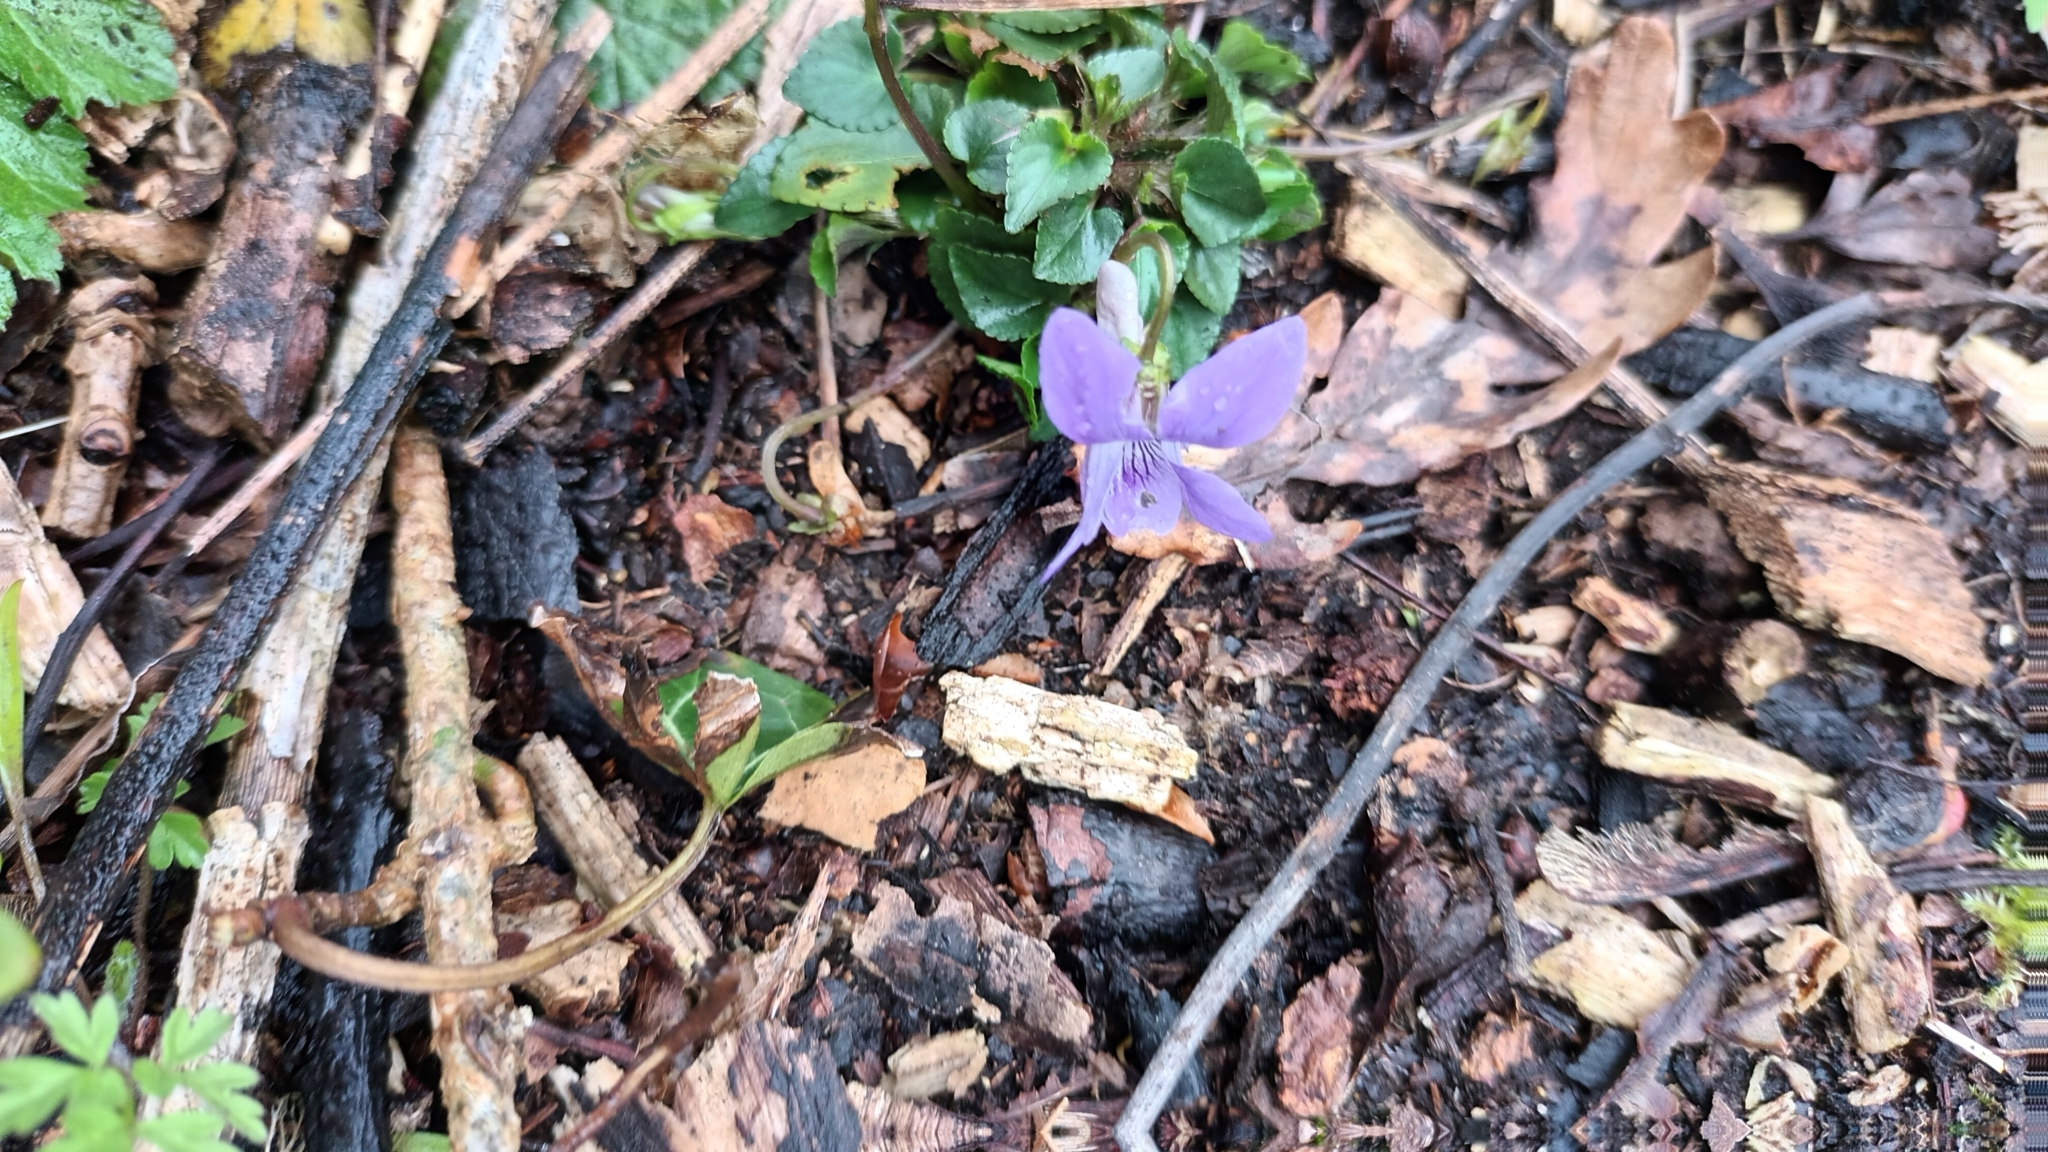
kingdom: Plantae
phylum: Tracheophyta
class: Magnoliopsida
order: Malpighiales
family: Violaceae
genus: Viola
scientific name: Viola riviniana
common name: Common dog-violet
